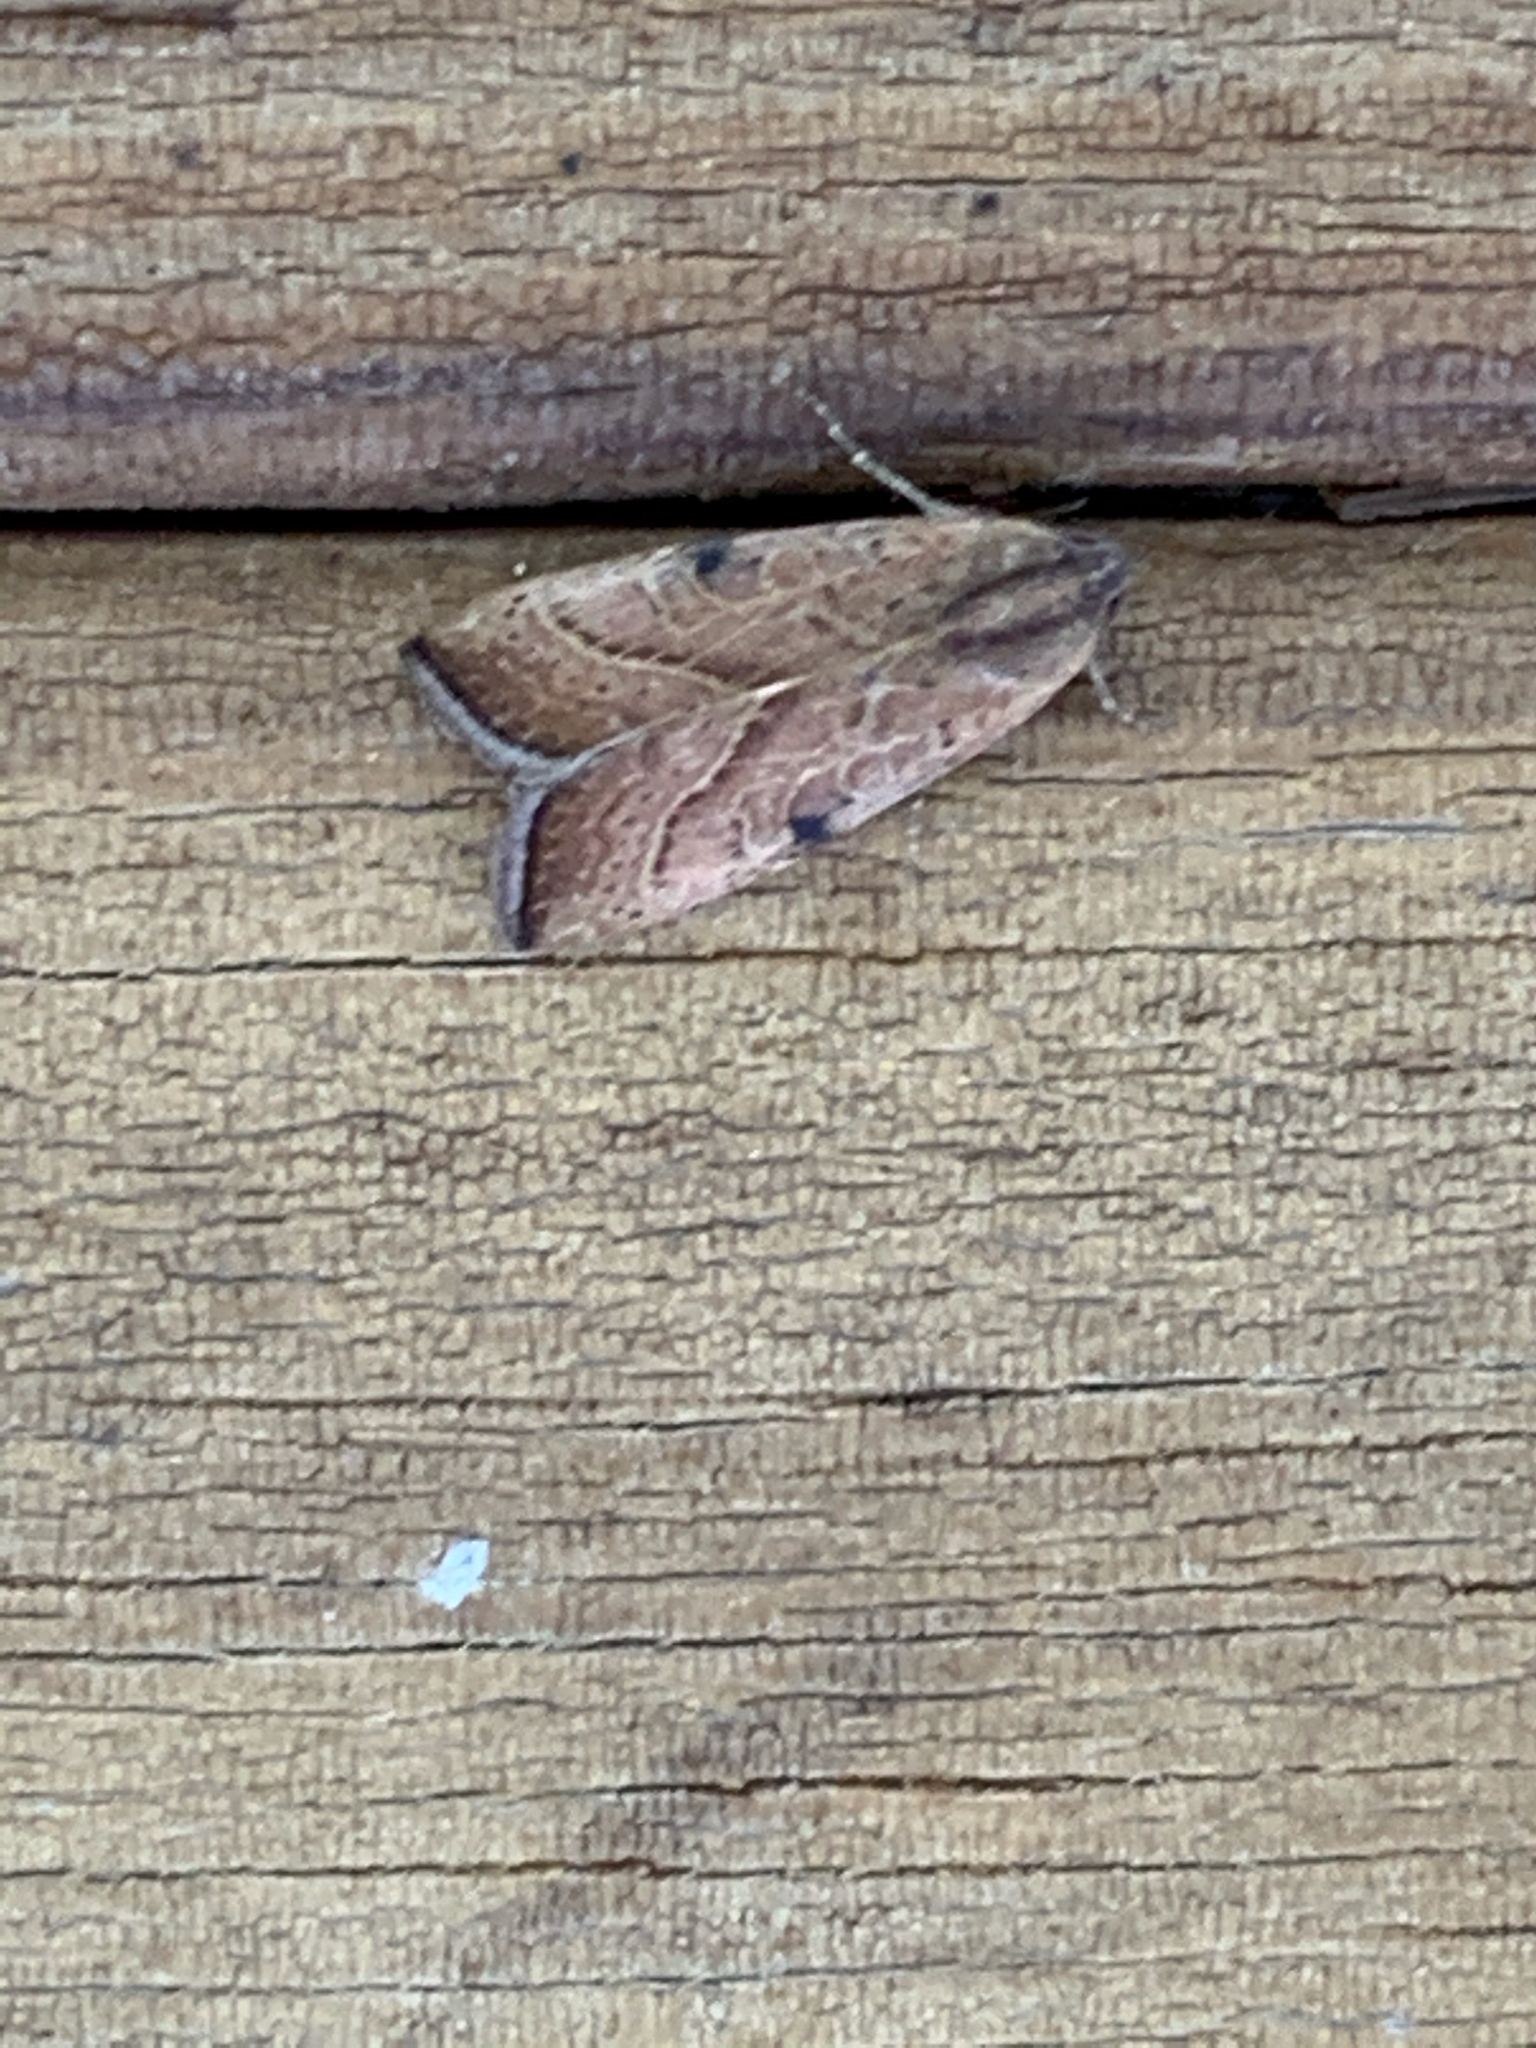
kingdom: Animalia
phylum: Arthropoda
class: Insecta
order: Lepidoptera
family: Noctuidae
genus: Galgula
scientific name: Galgula partita
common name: Wedgeling
